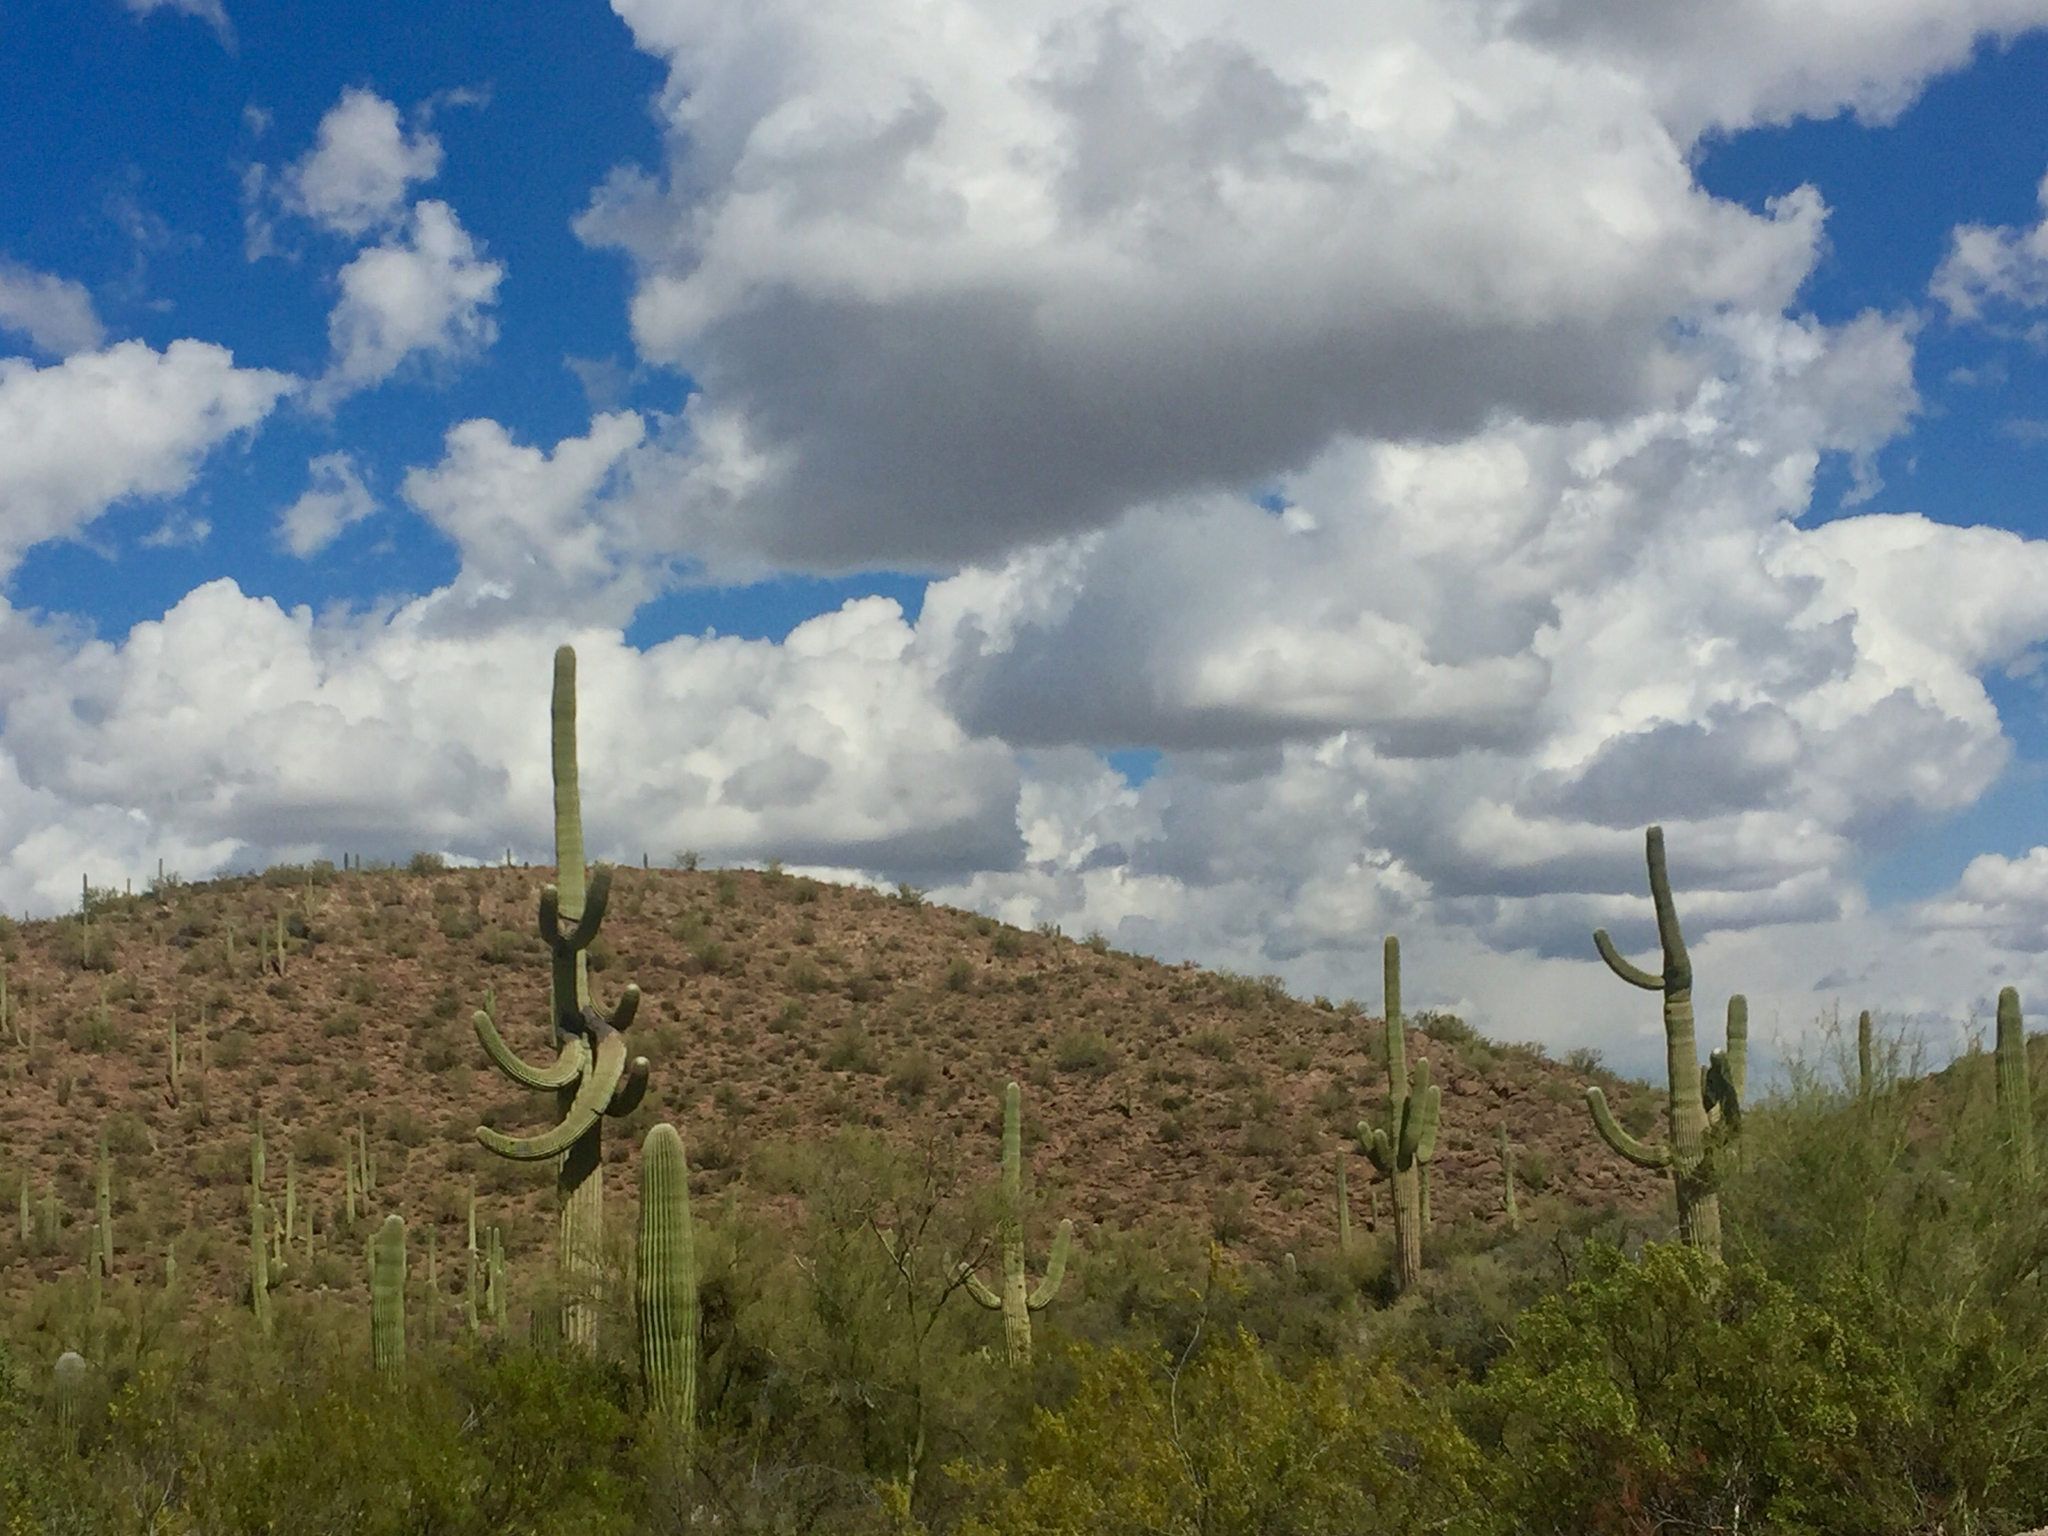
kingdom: Plantae
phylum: Tracheophyta
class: Magnoliopsida
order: Caryophyllales
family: Cactaceae
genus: Carnegiea
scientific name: Carnegiea gigantea
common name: Saguaro
